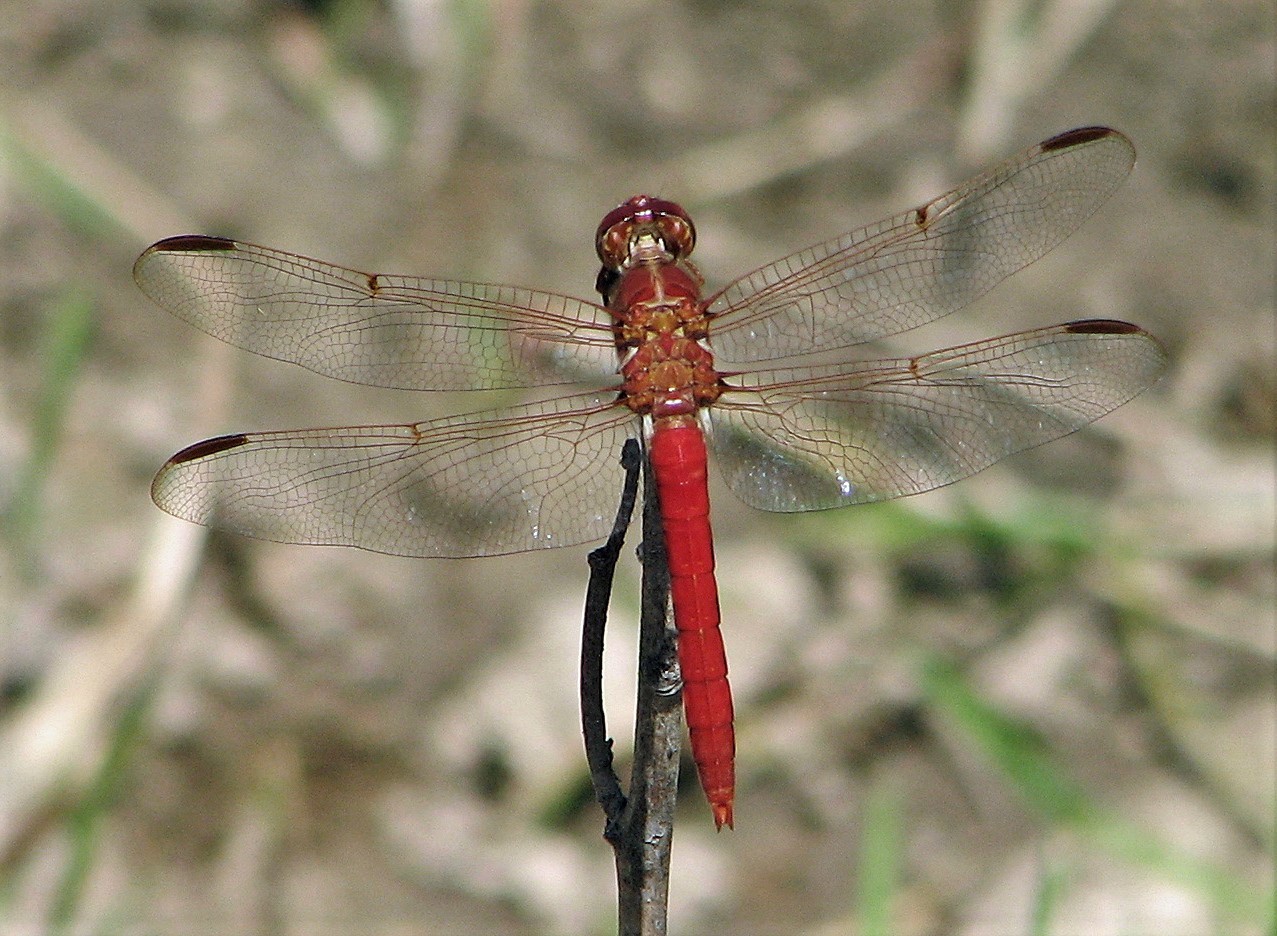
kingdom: Animalia
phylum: Arthropoda
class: Insecta
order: Odonata
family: Libellulidae
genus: Orthemis
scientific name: Orthemis nodiplaga
